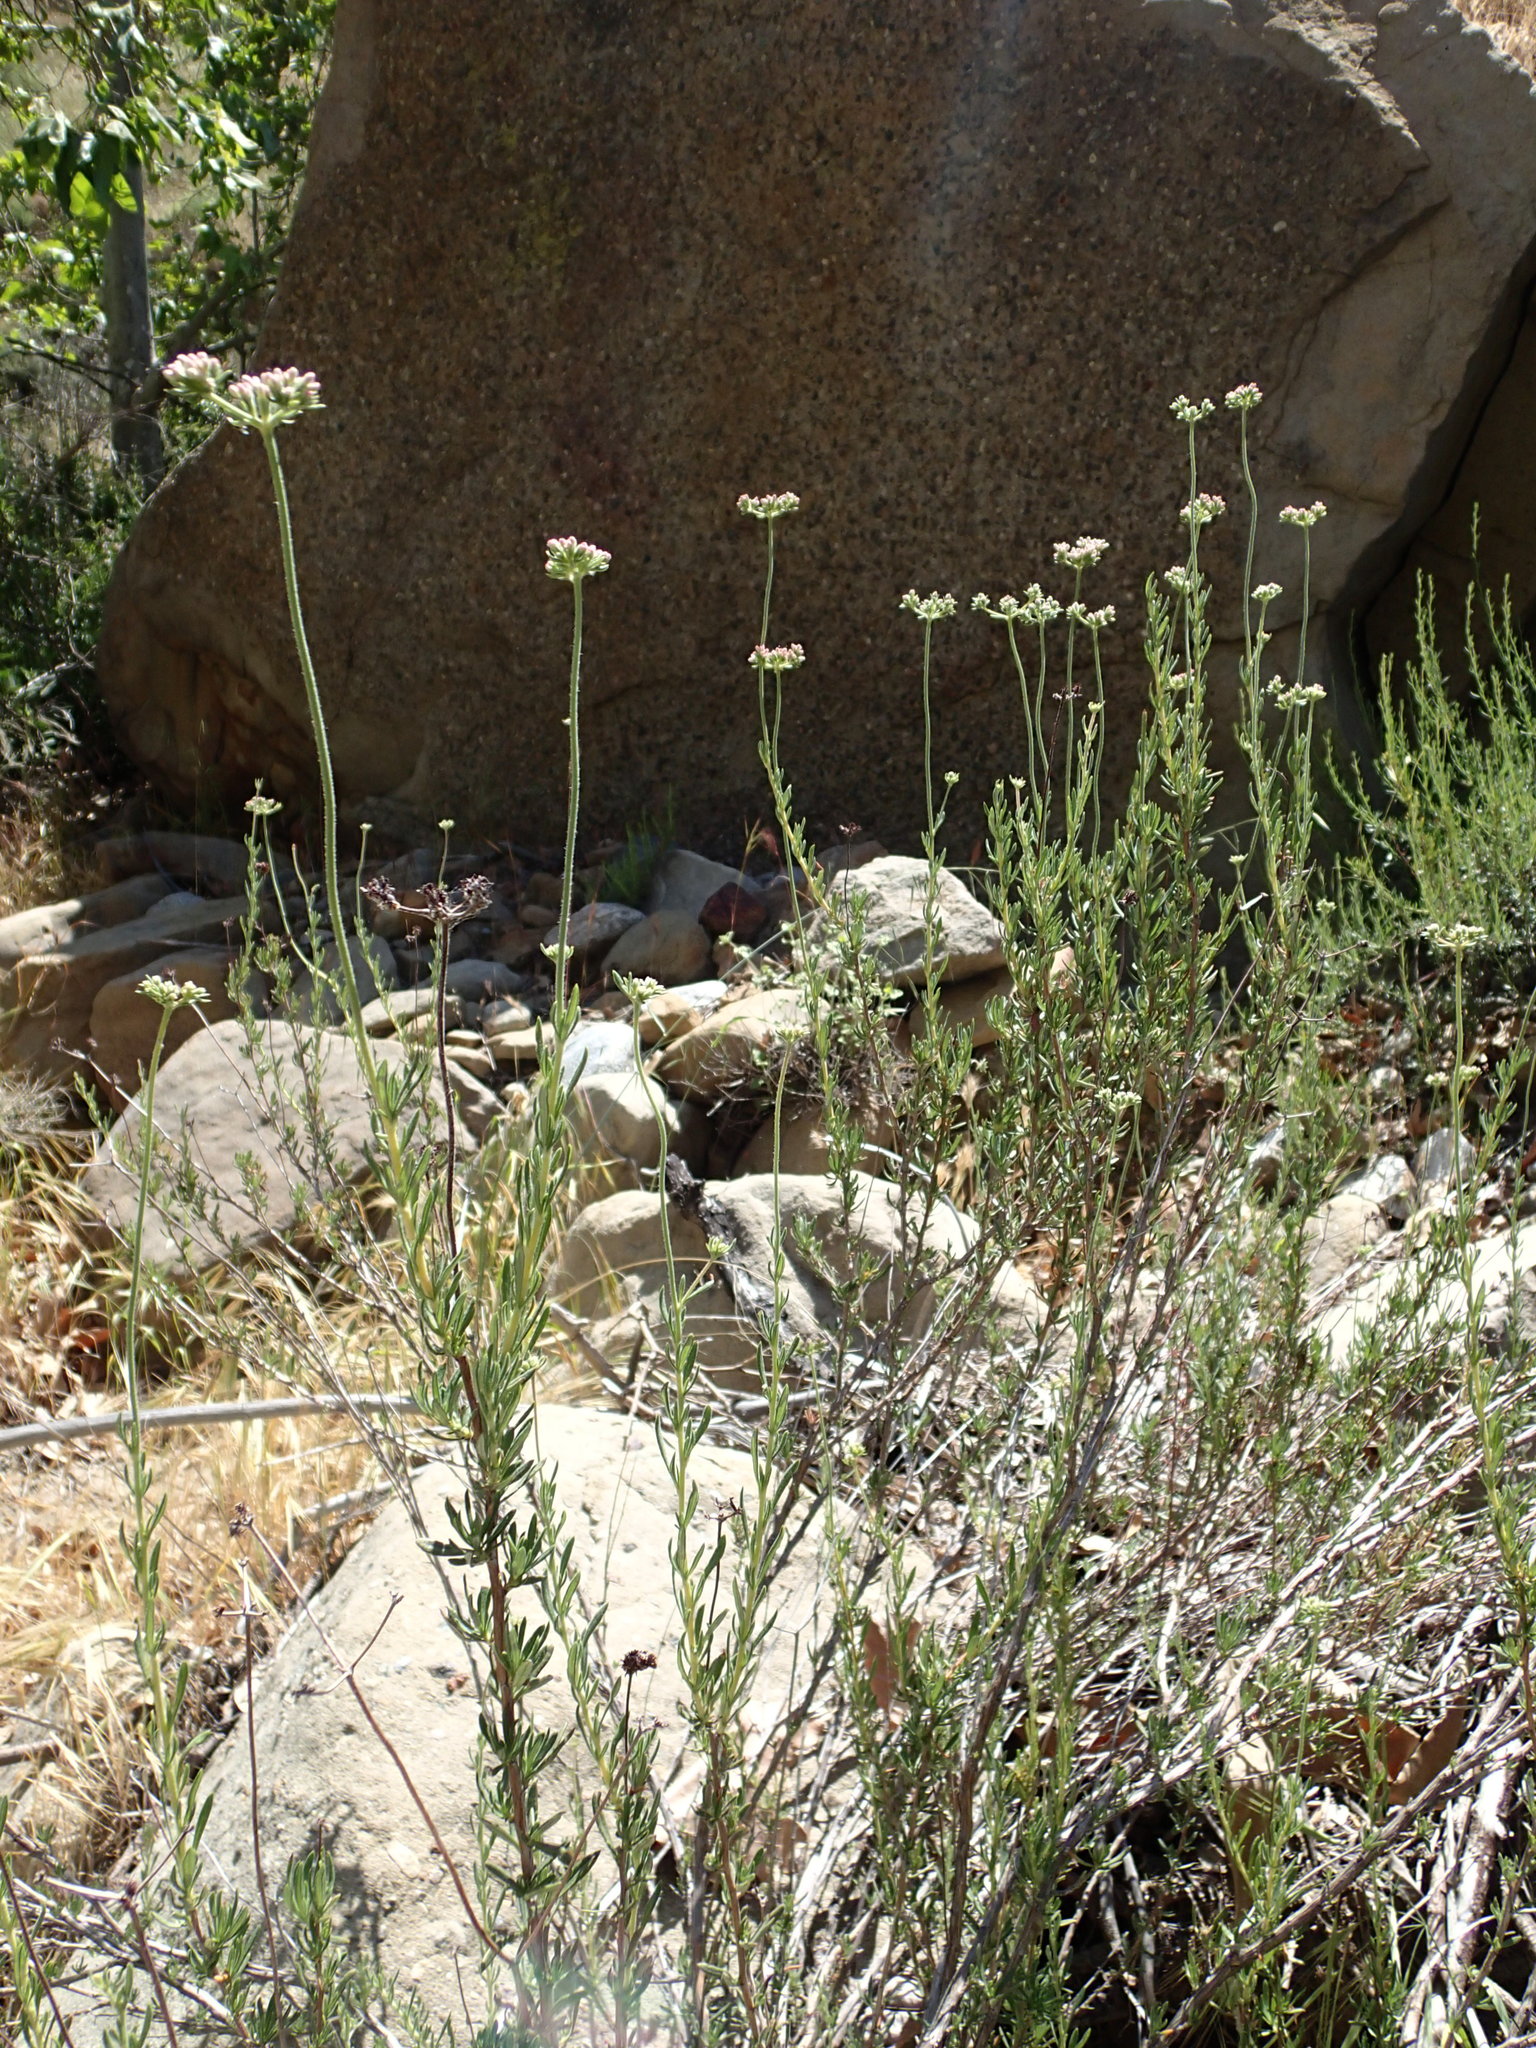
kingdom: Plantae
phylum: Tracheophyta
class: Magnoliopsida
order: Caryophyllales
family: Polygonaceae
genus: Eriogonum
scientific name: Eriogonum fasciculatum
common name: California wild buckwheat
